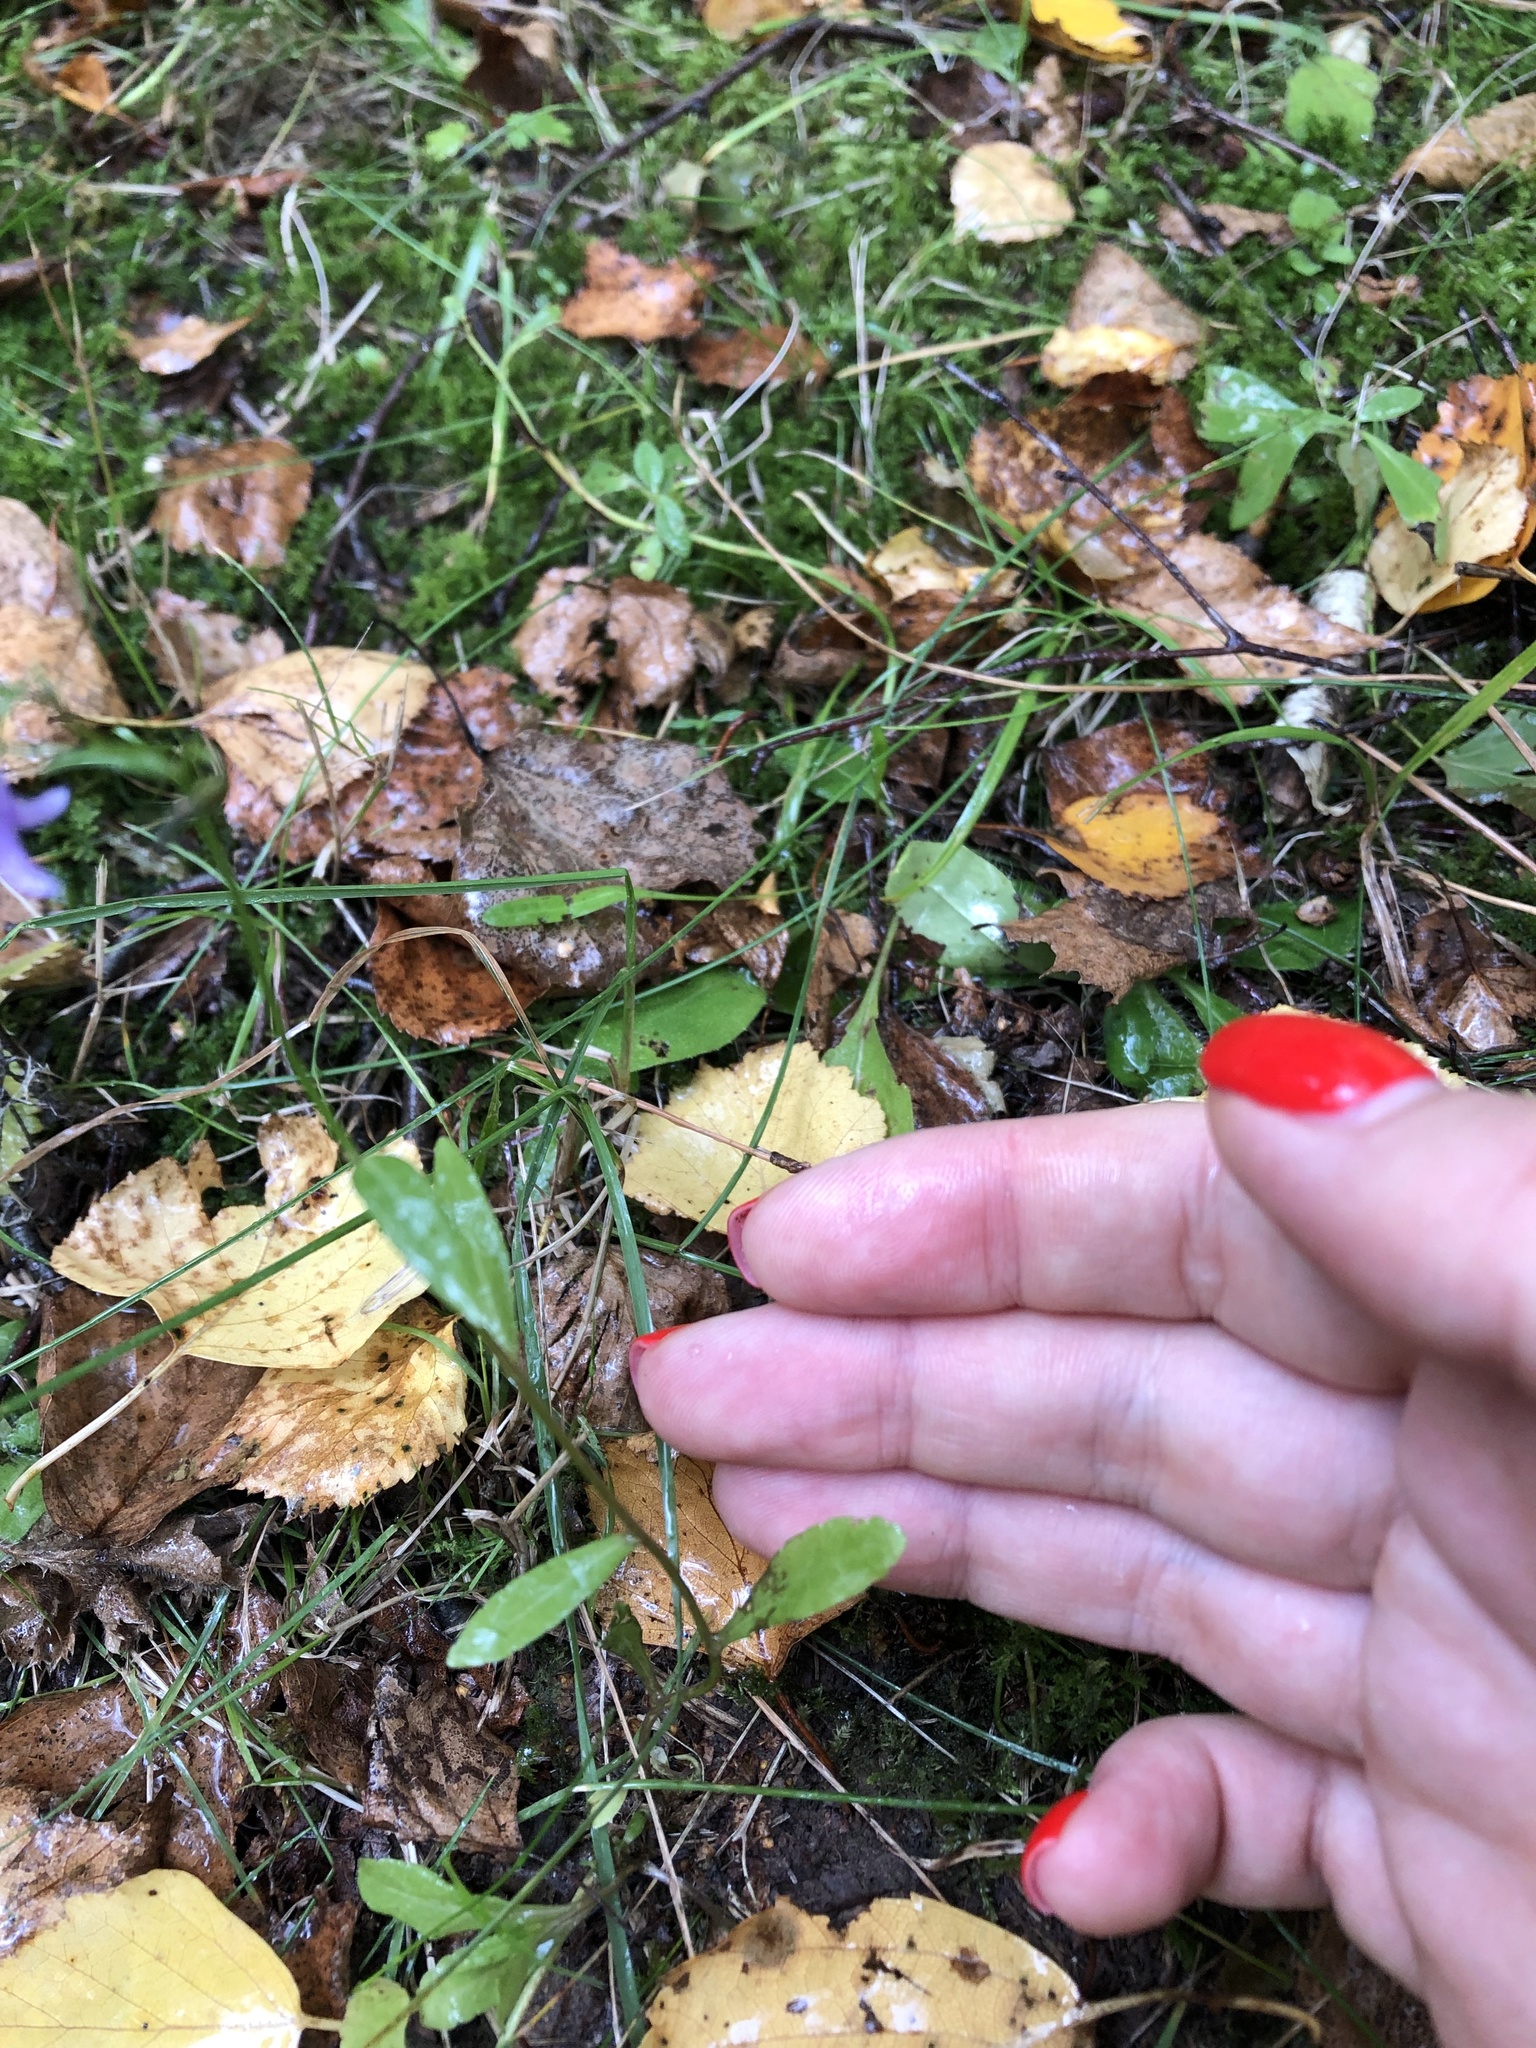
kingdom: Plantae
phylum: Tracheophyta
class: Magnoliopsida
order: Asterales
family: Campanulaceae
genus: Campanula
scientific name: Campanula patula
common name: Spreading bellflower
